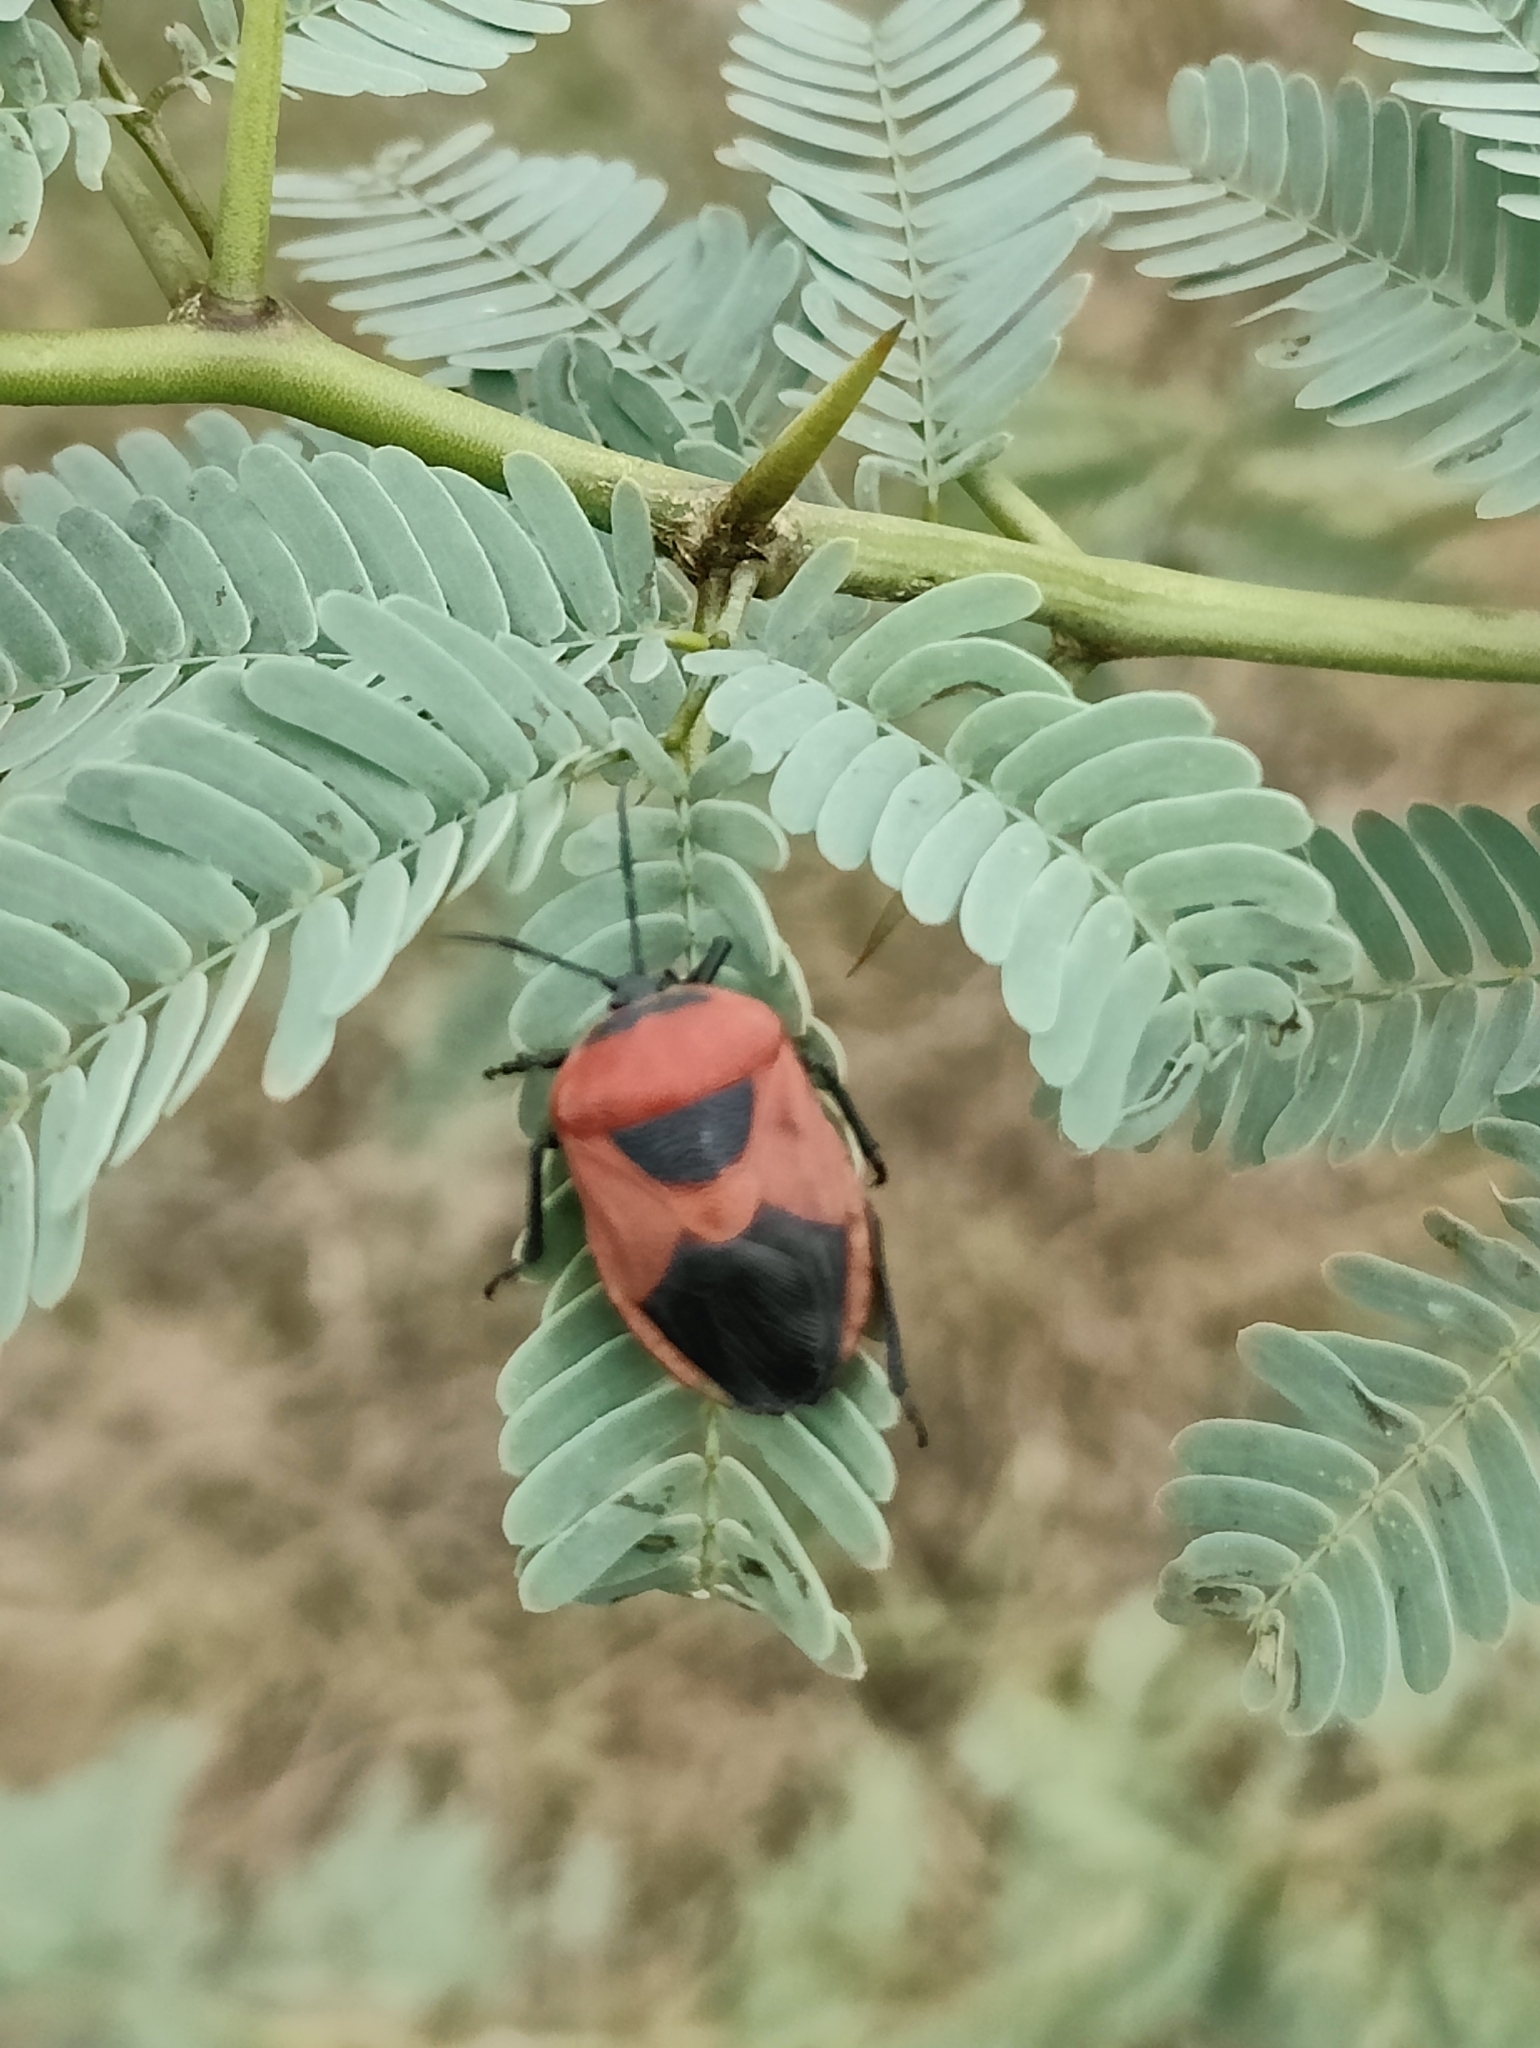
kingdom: Animalia
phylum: Arthropoda
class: Insecta
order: Hemiptera
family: Dinidoridae
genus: Coridius
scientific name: Coridius ianus
